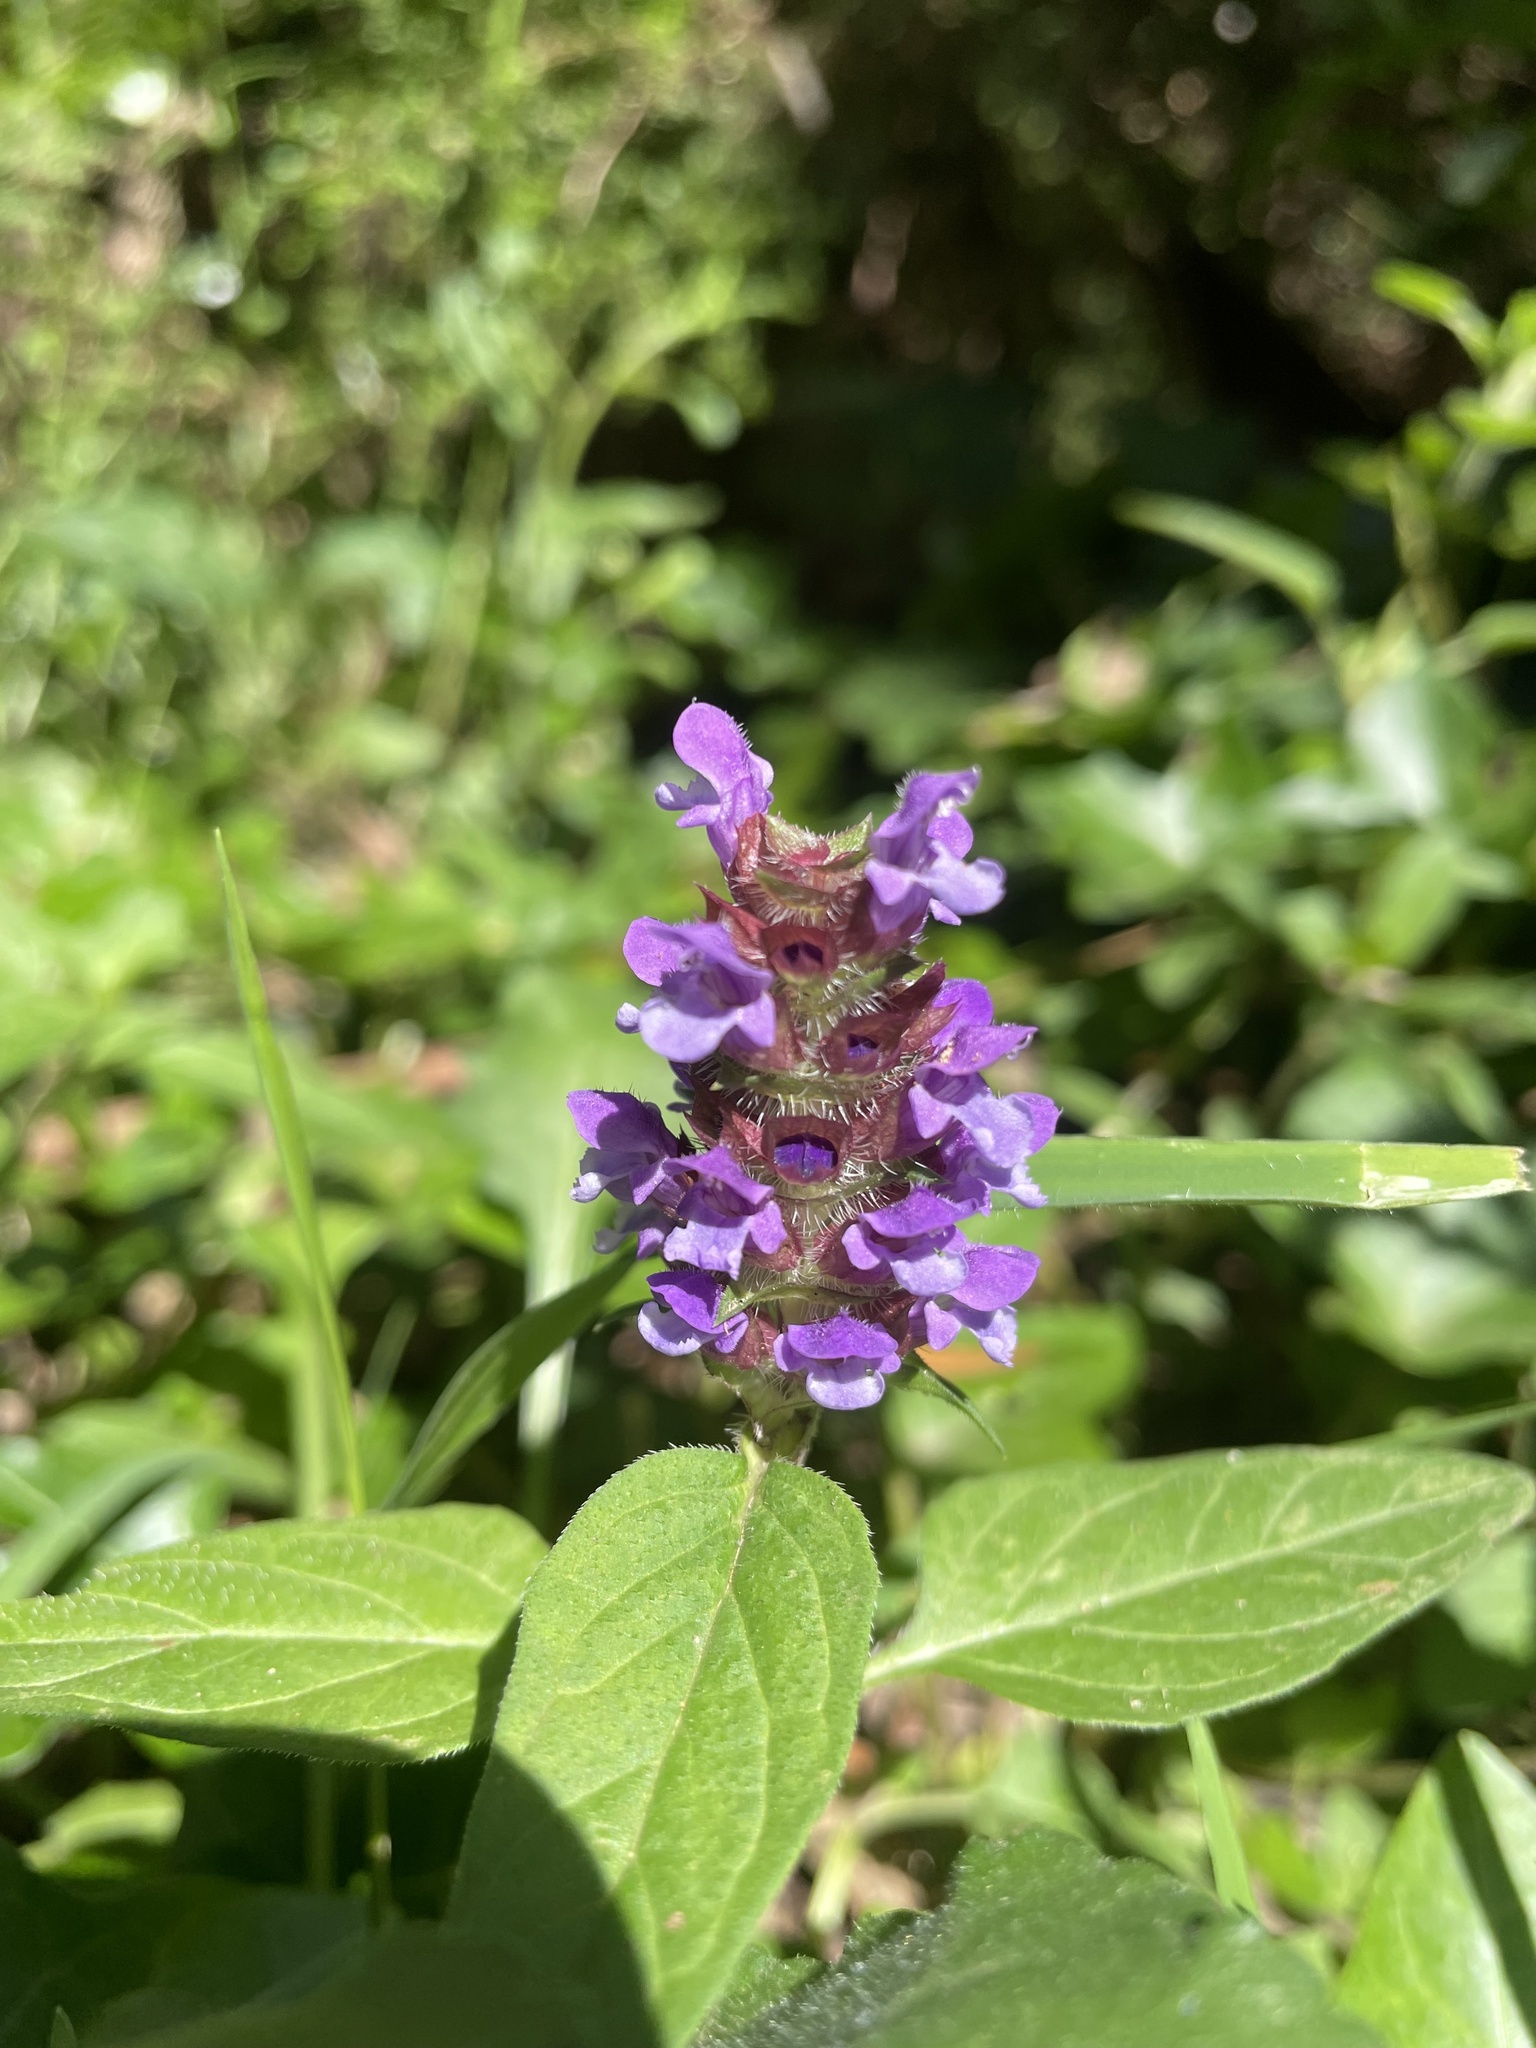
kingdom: Plantae
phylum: Tracheophyta
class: Magnoliopsida
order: Lamiales
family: Lamiaceae
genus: Prunella
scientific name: Prunella vulgaris
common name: Heal-all
